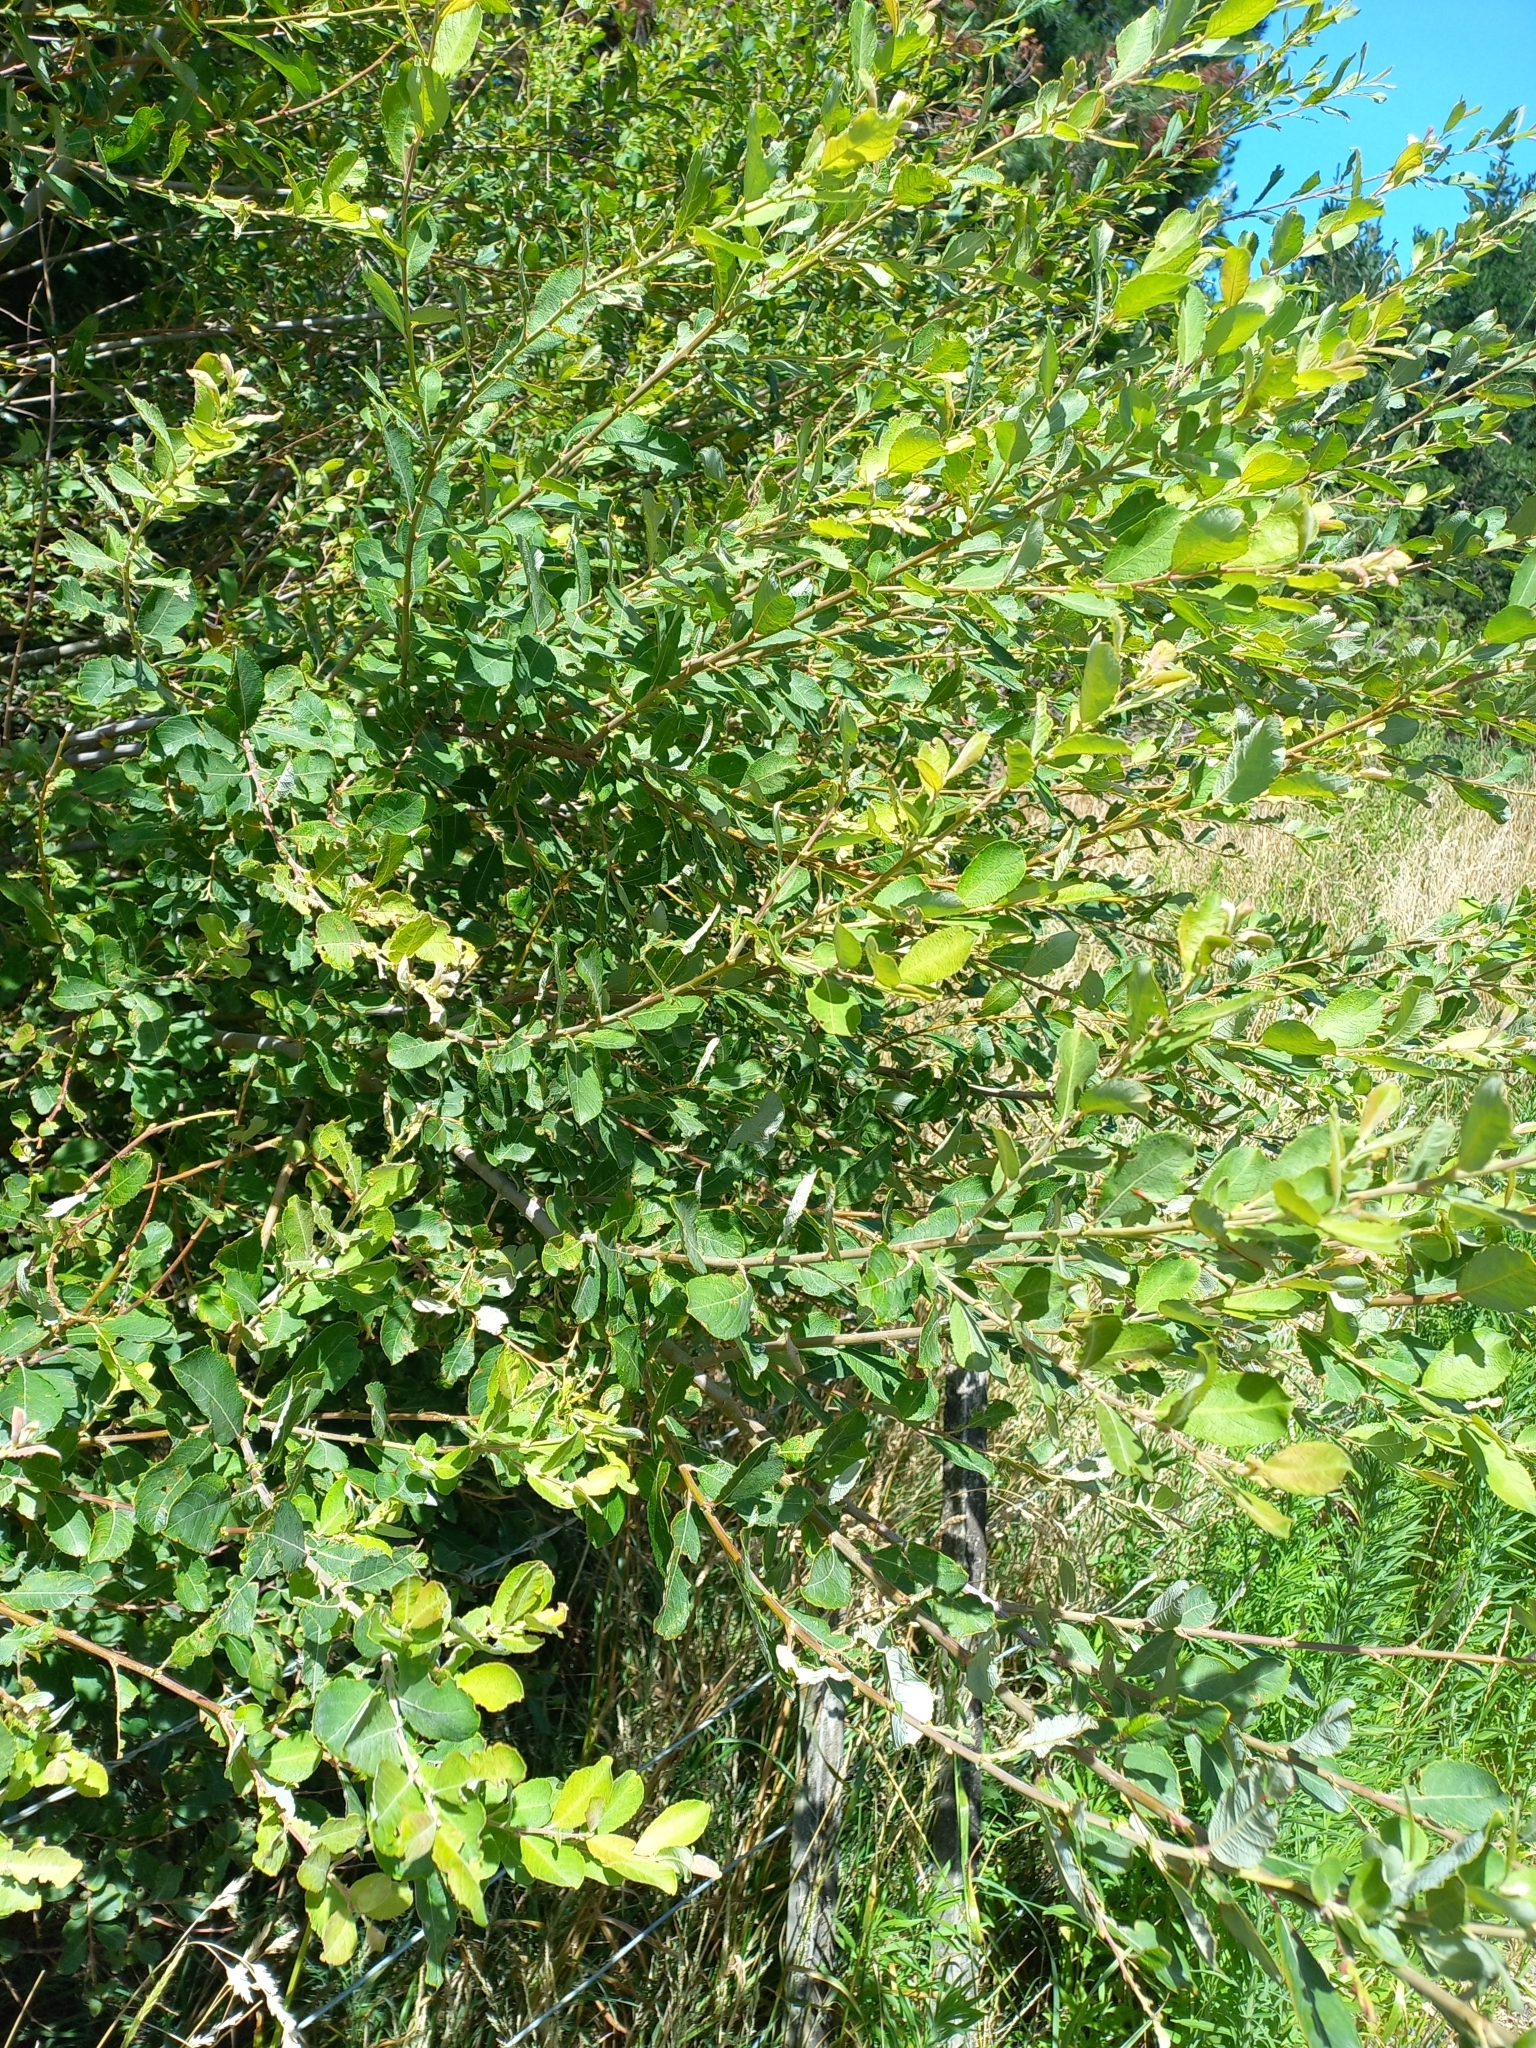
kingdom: Plantae
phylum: Tracheophyta
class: Magnoliopsida
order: Malpighiales
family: Salicaceae
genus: Salix
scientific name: Salix cinerea
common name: Common sallow
